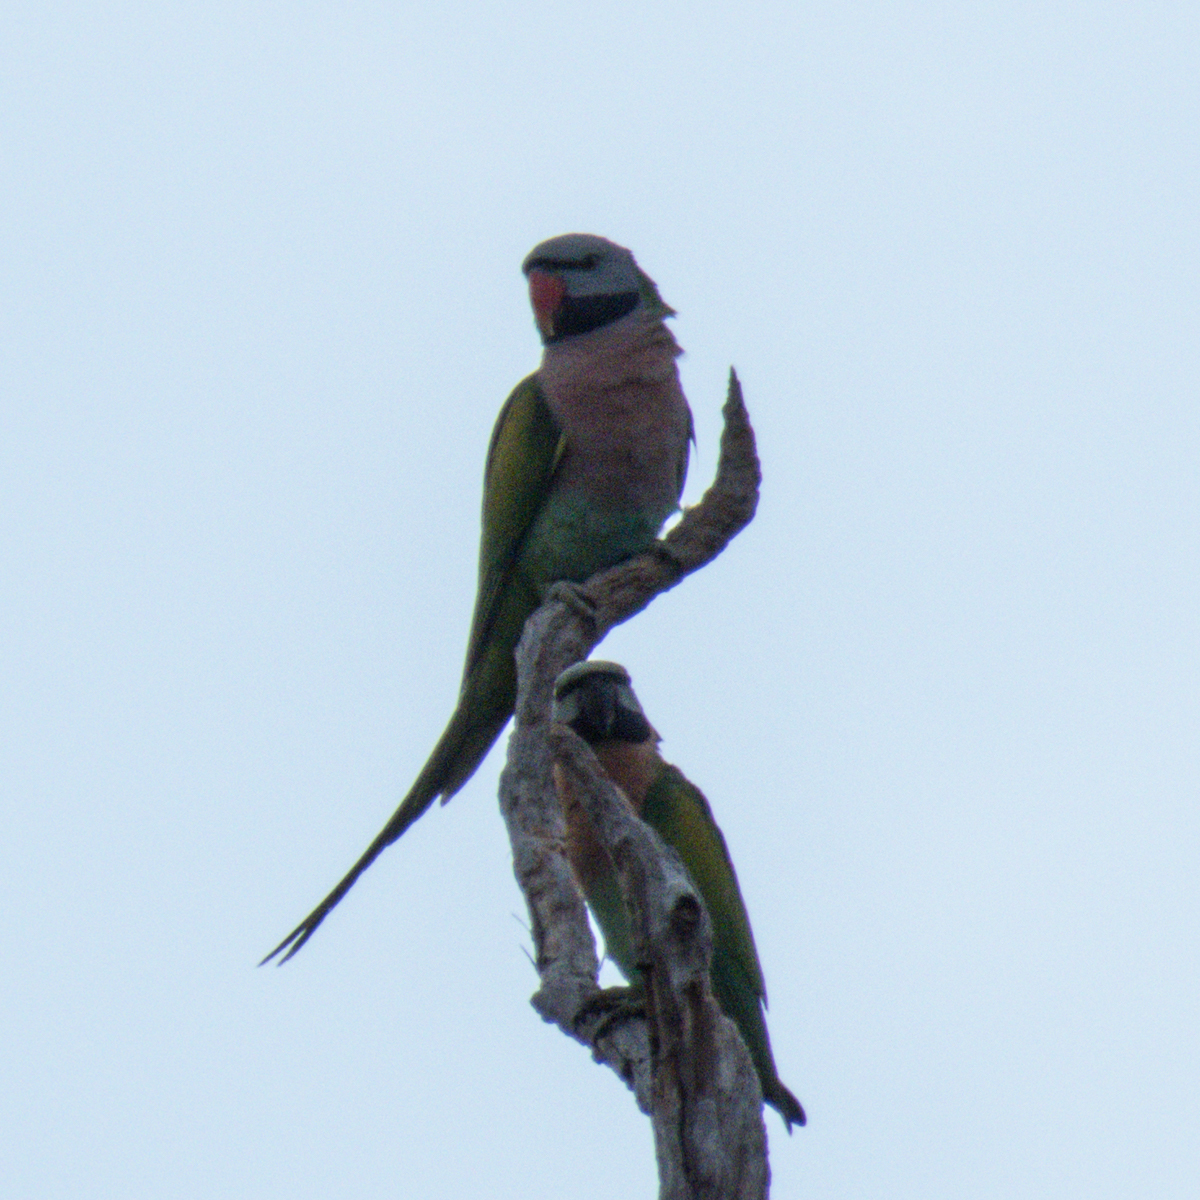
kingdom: Animalia
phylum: Chordata
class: Aves
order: Psittaciformes
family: Psittacidae
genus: Psittacula
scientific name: Psittacula alexandri
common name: Red-breasted parakeet
